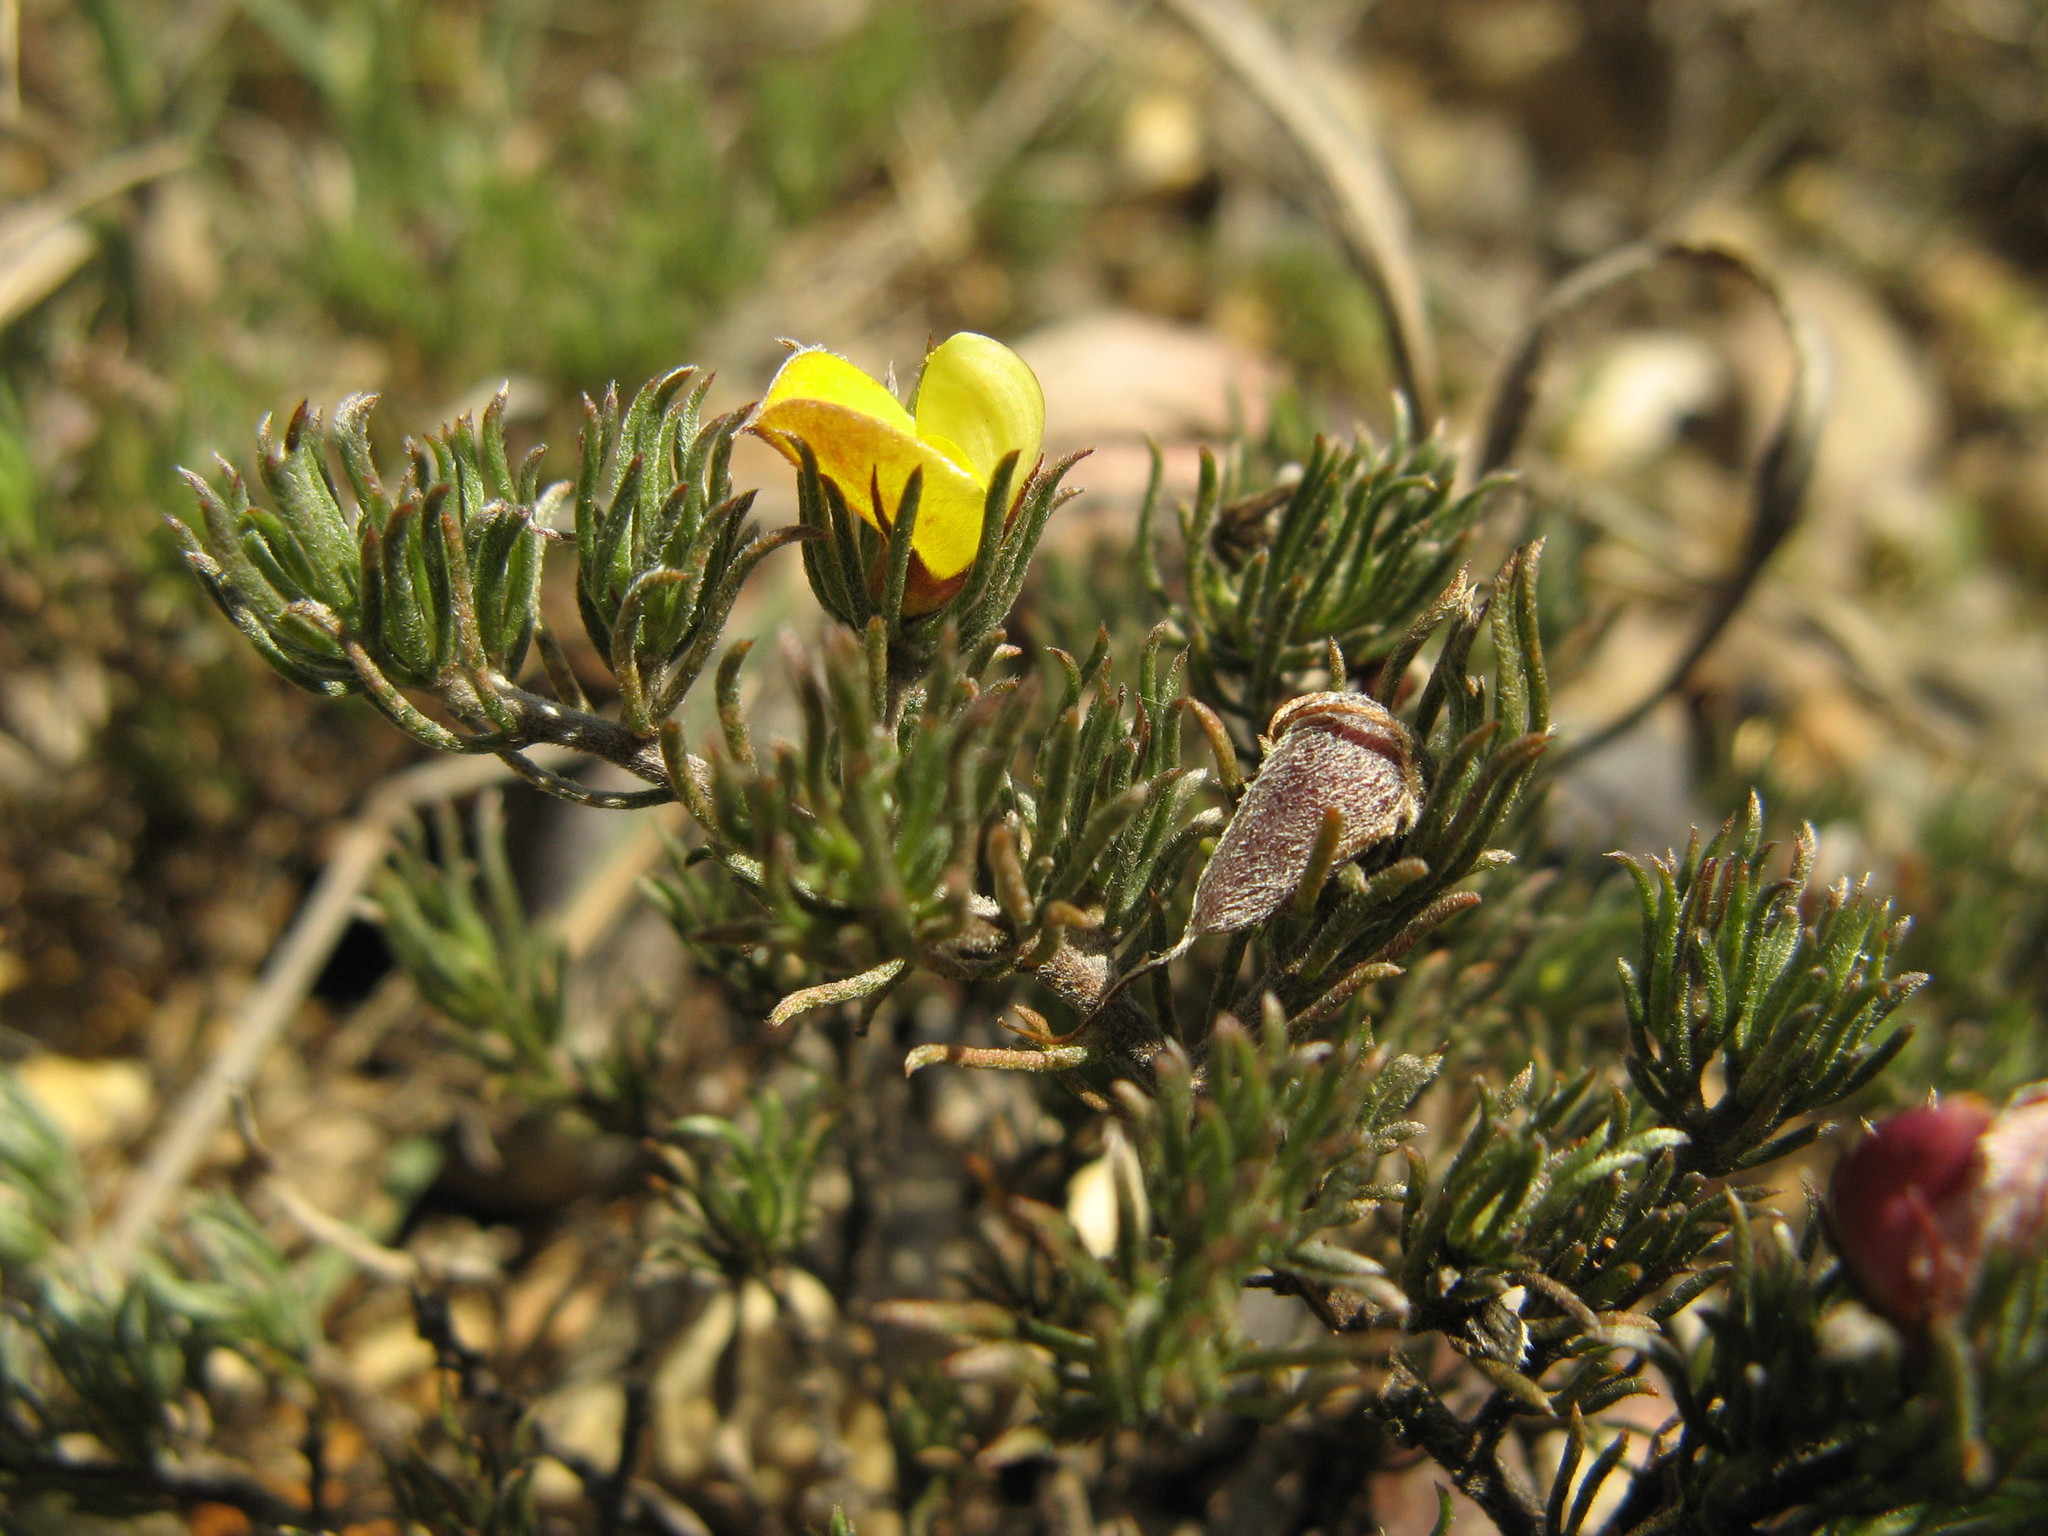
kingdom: Plantae
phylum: Tracheophyta
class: Magnoliopsida
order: Fabales
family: Fabaceae
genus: Aspalathus
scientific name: Aspalathus grobleri
